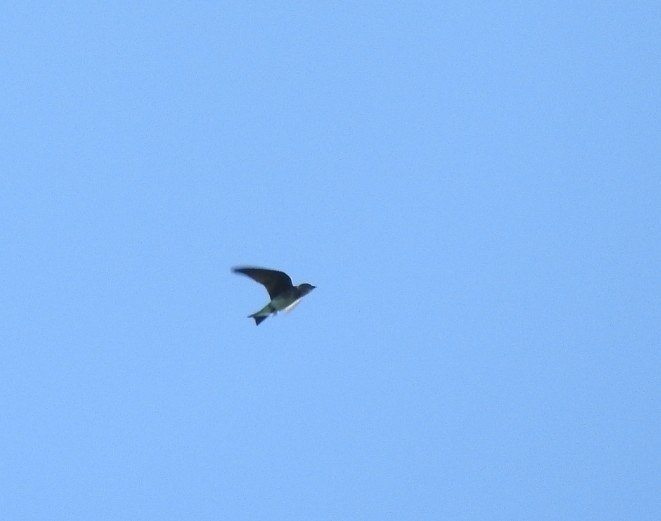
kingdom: Animalia
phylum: Chordata
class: Aves
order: Passeriformes
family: Hirundinidae
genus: Progne
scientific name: Progne chalybea
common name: Grey-breasted martin
